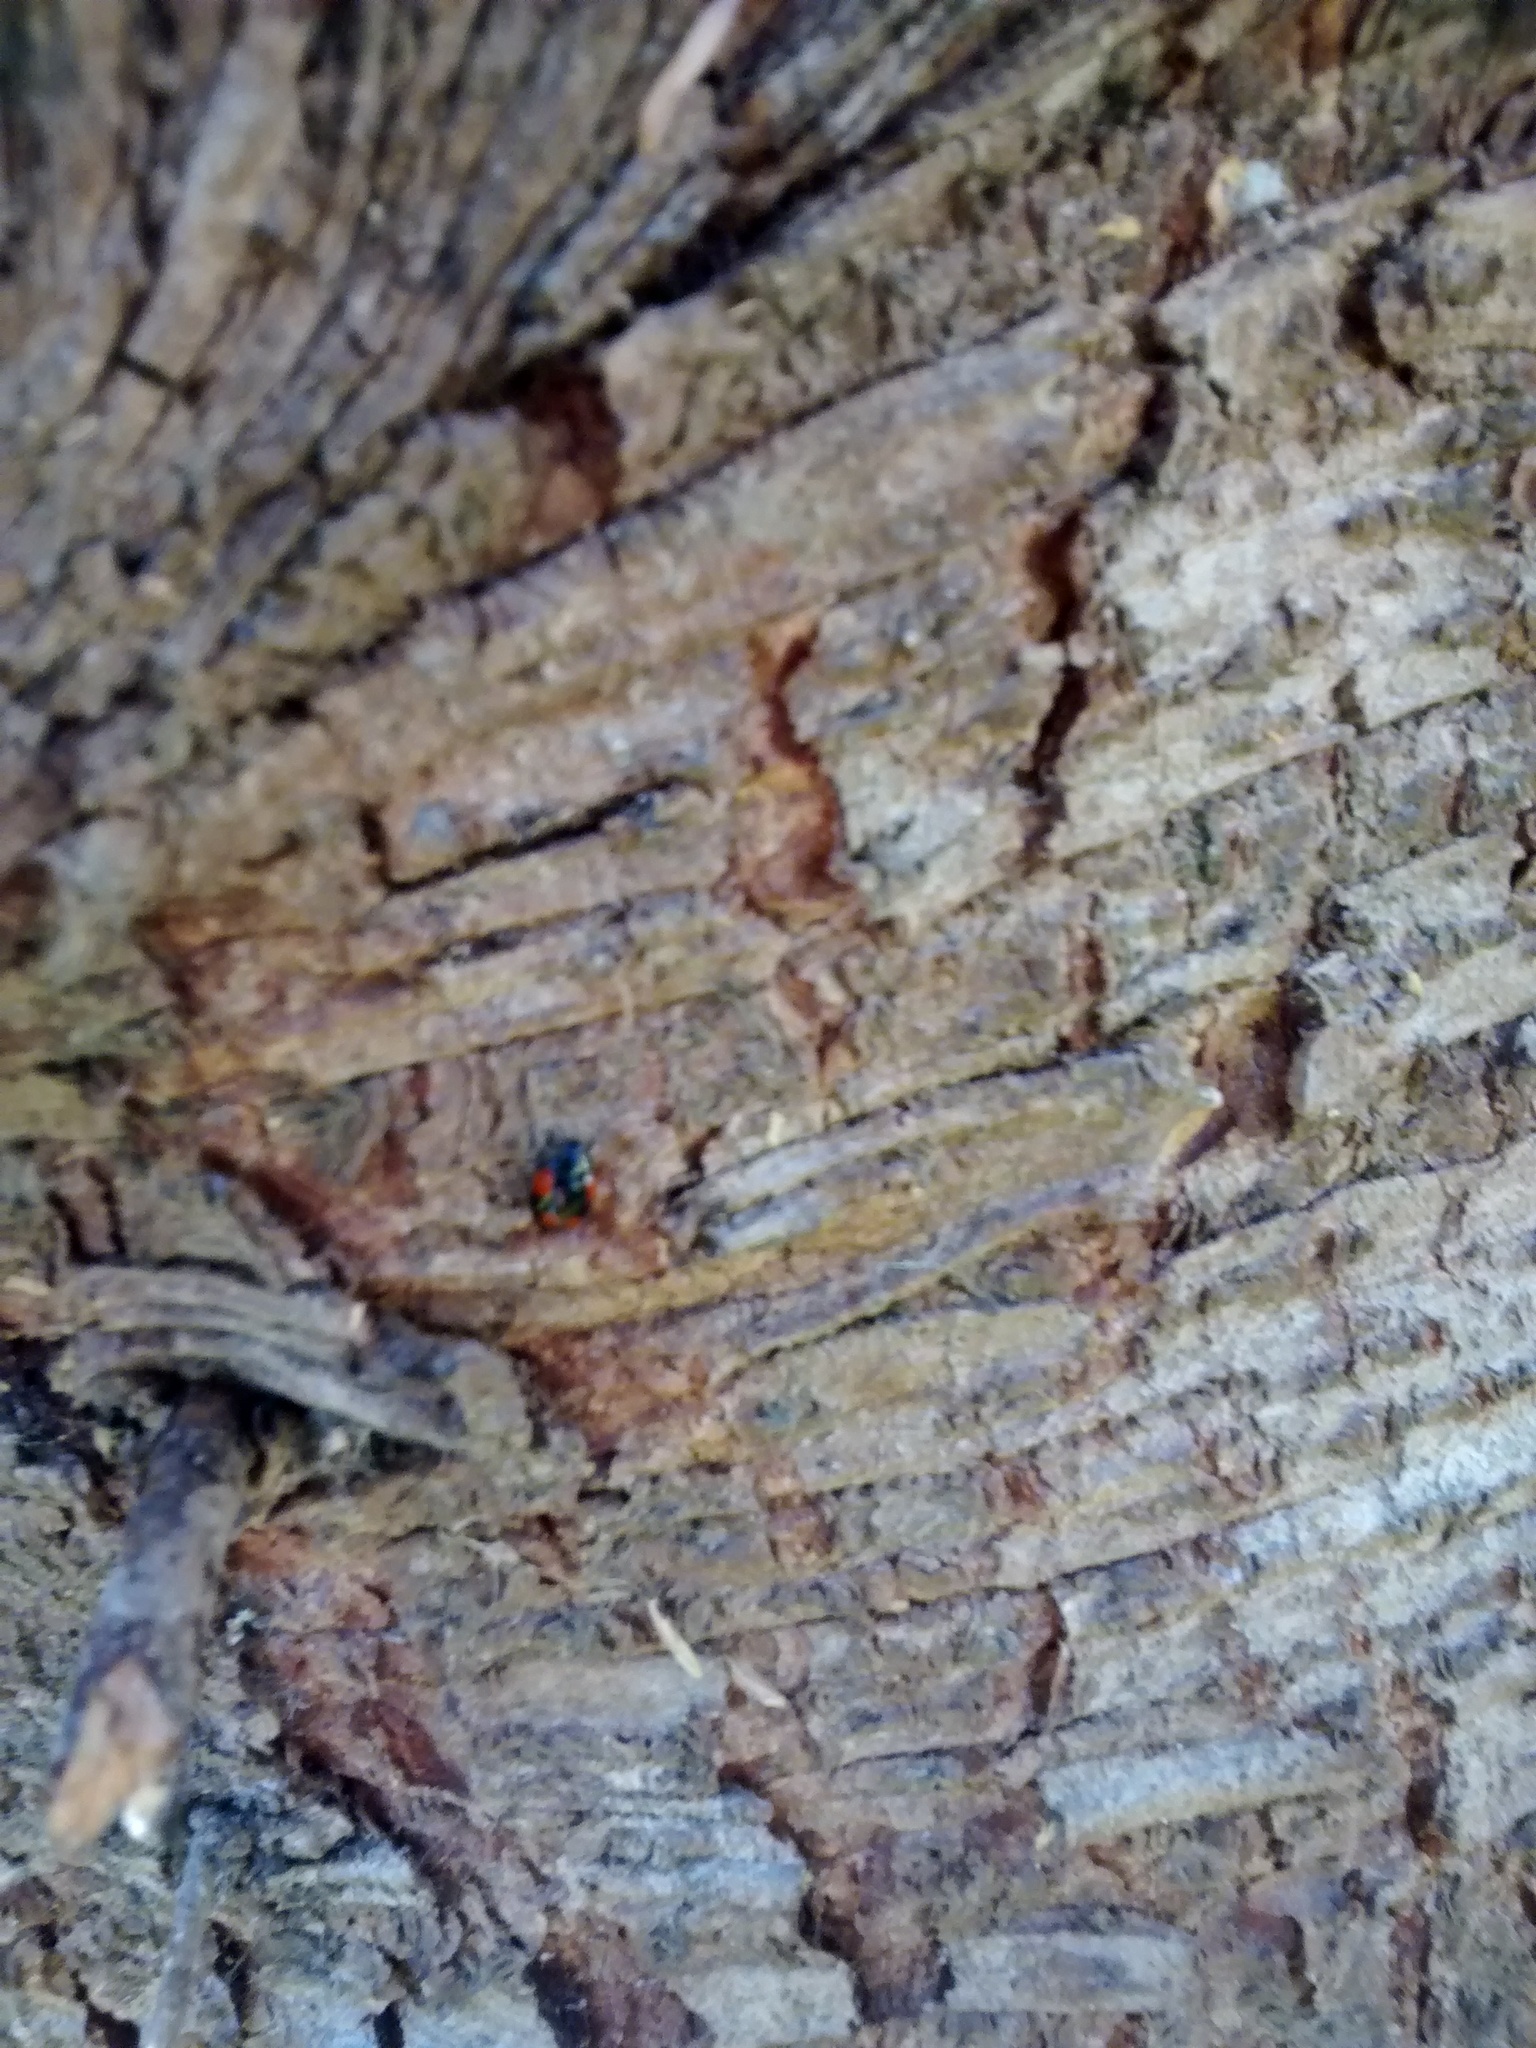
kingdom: Animalia
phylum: Arthropoda
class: Insecta
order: Coleoptera
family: Coccinellidae
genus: Adalia
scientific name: Adalia bipunctata
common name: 2-spot ladybird
